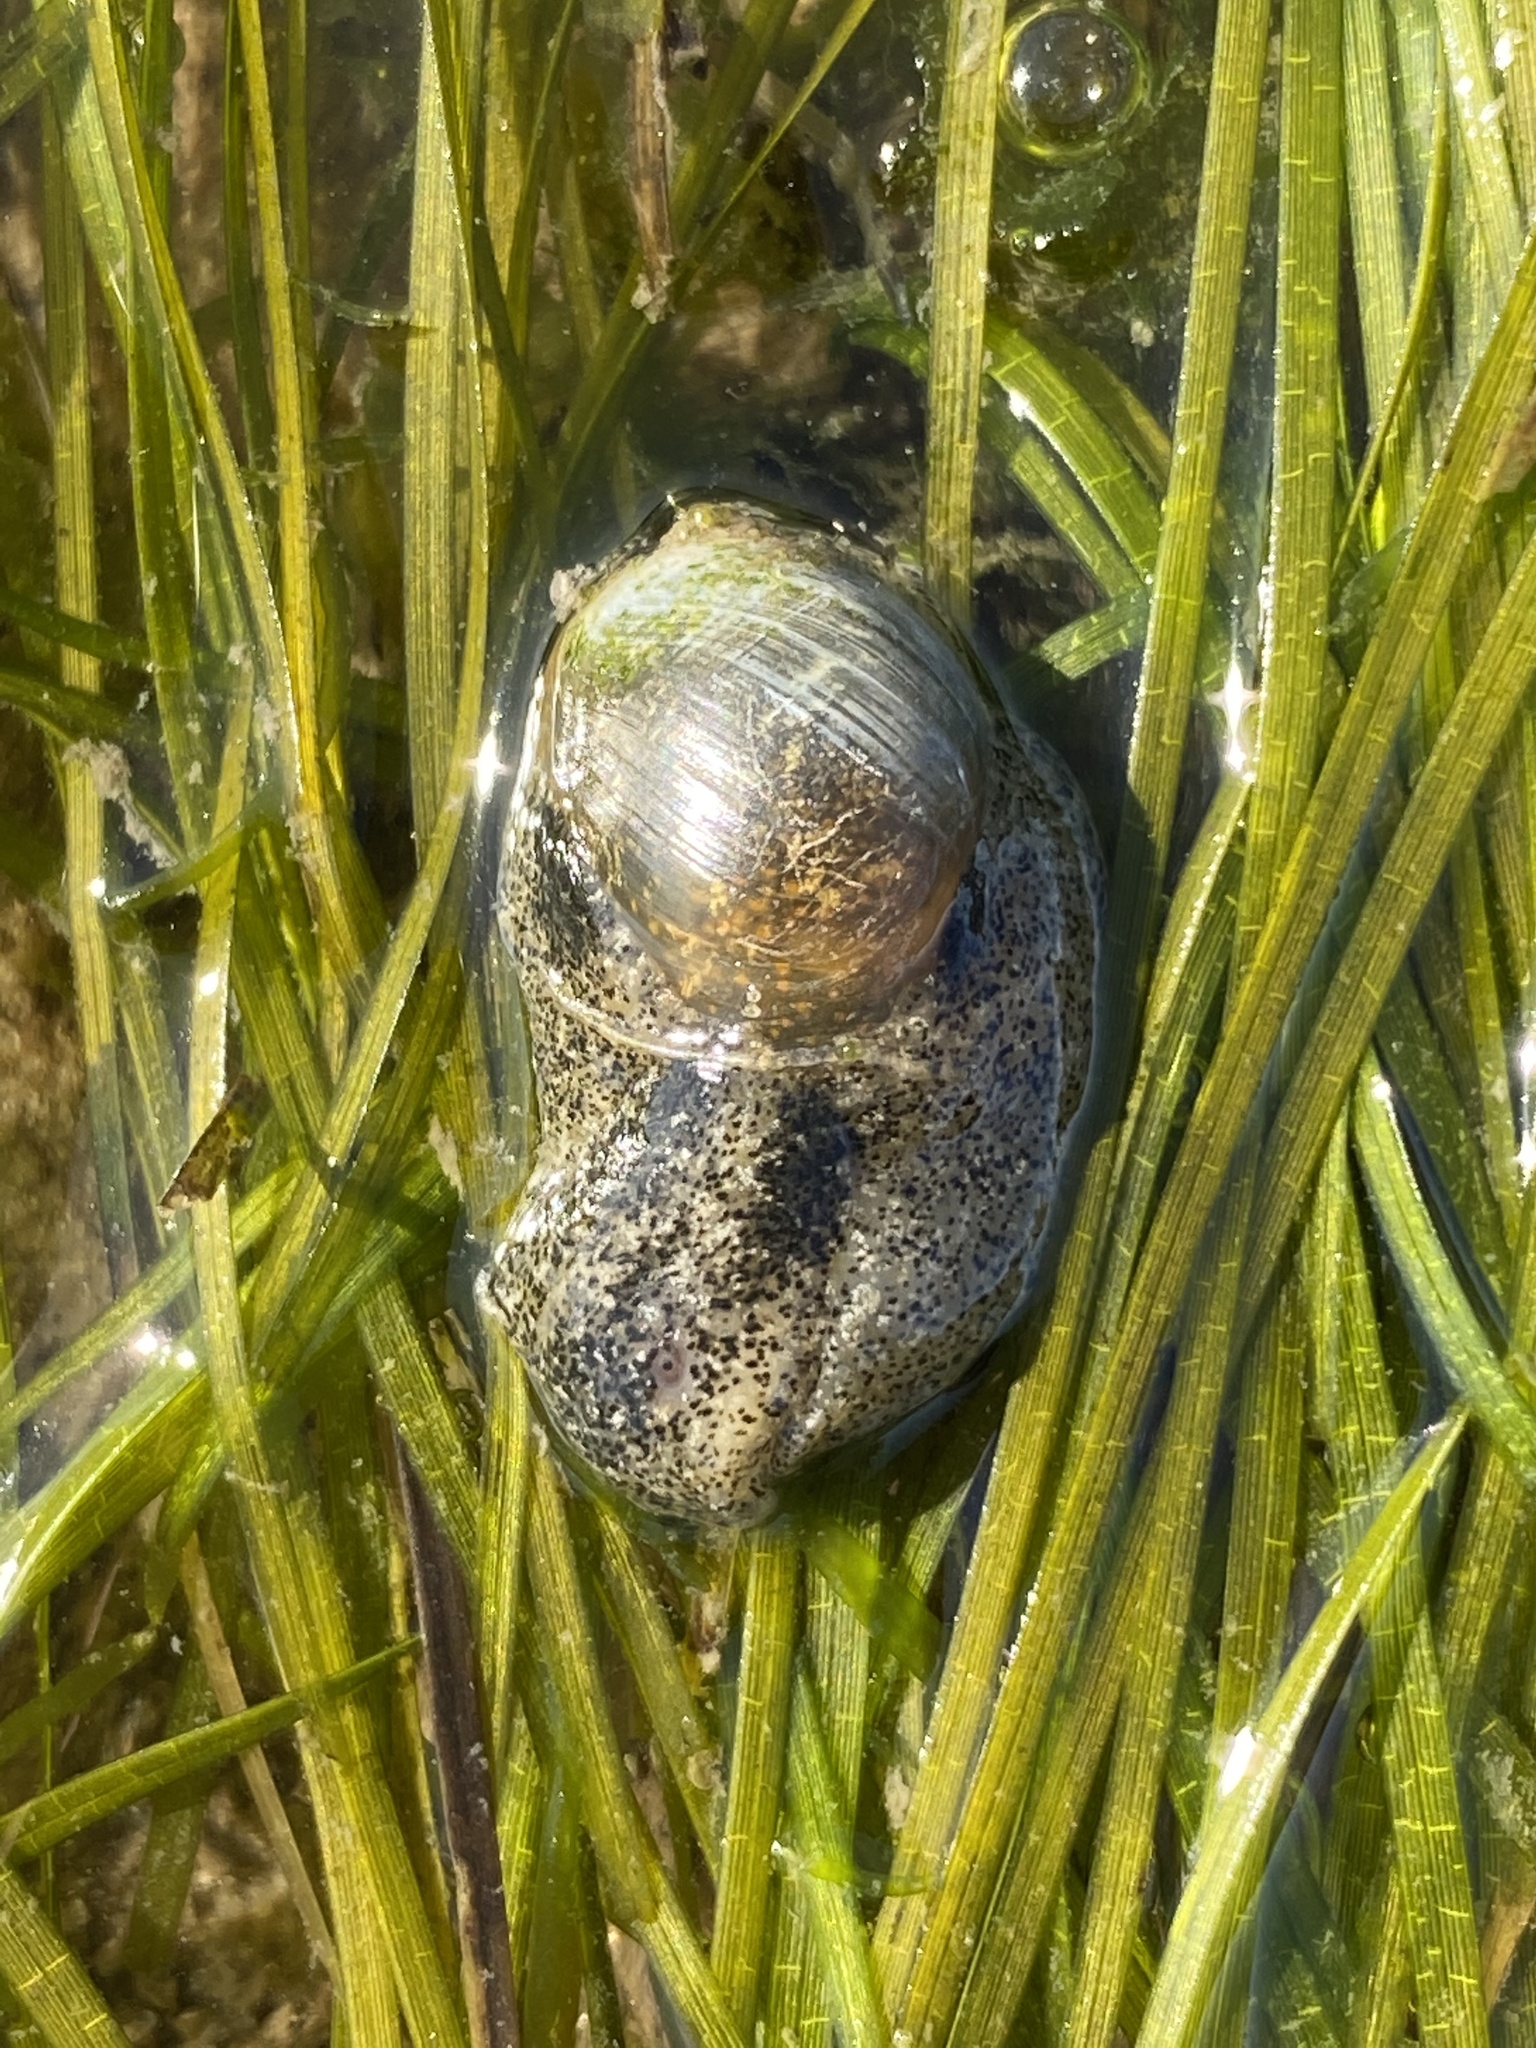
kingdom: Animalia
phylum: Mollusca
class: Gastropoda
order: Cephalaspidea
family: Haminoeidae
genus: Haminoea
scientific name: Haminoea natalensis
